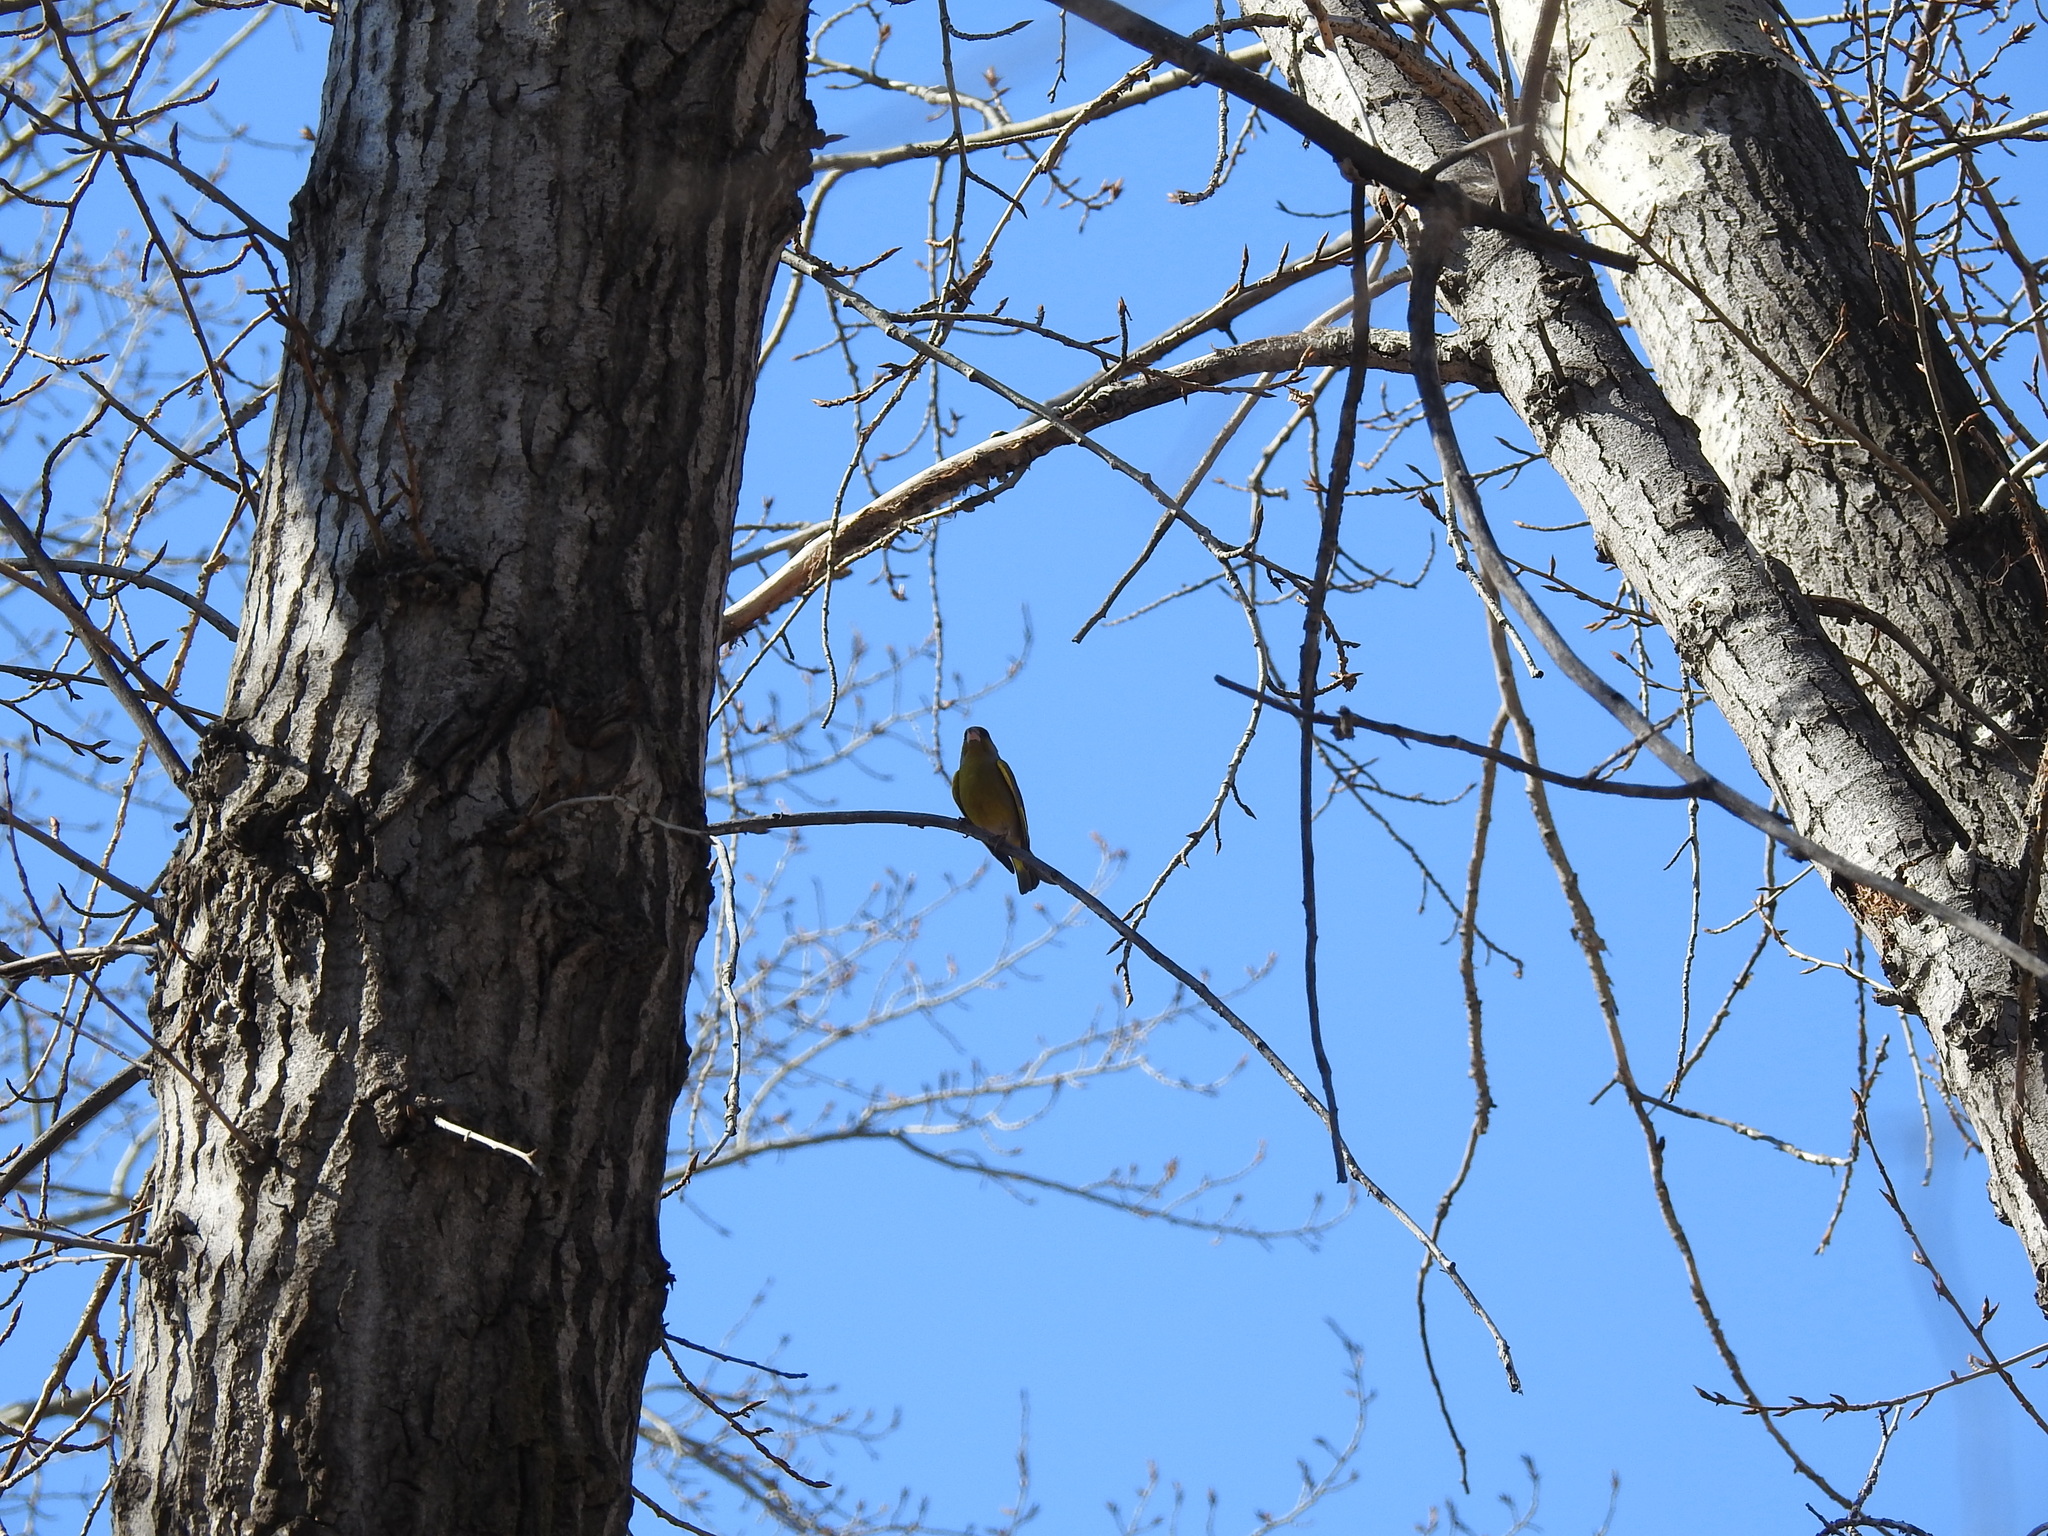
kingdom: Plantae
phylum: Tracheophyta
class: Liliopsida
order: Poales
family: Poaceae
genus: Chloris
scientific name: Chloris chloris
